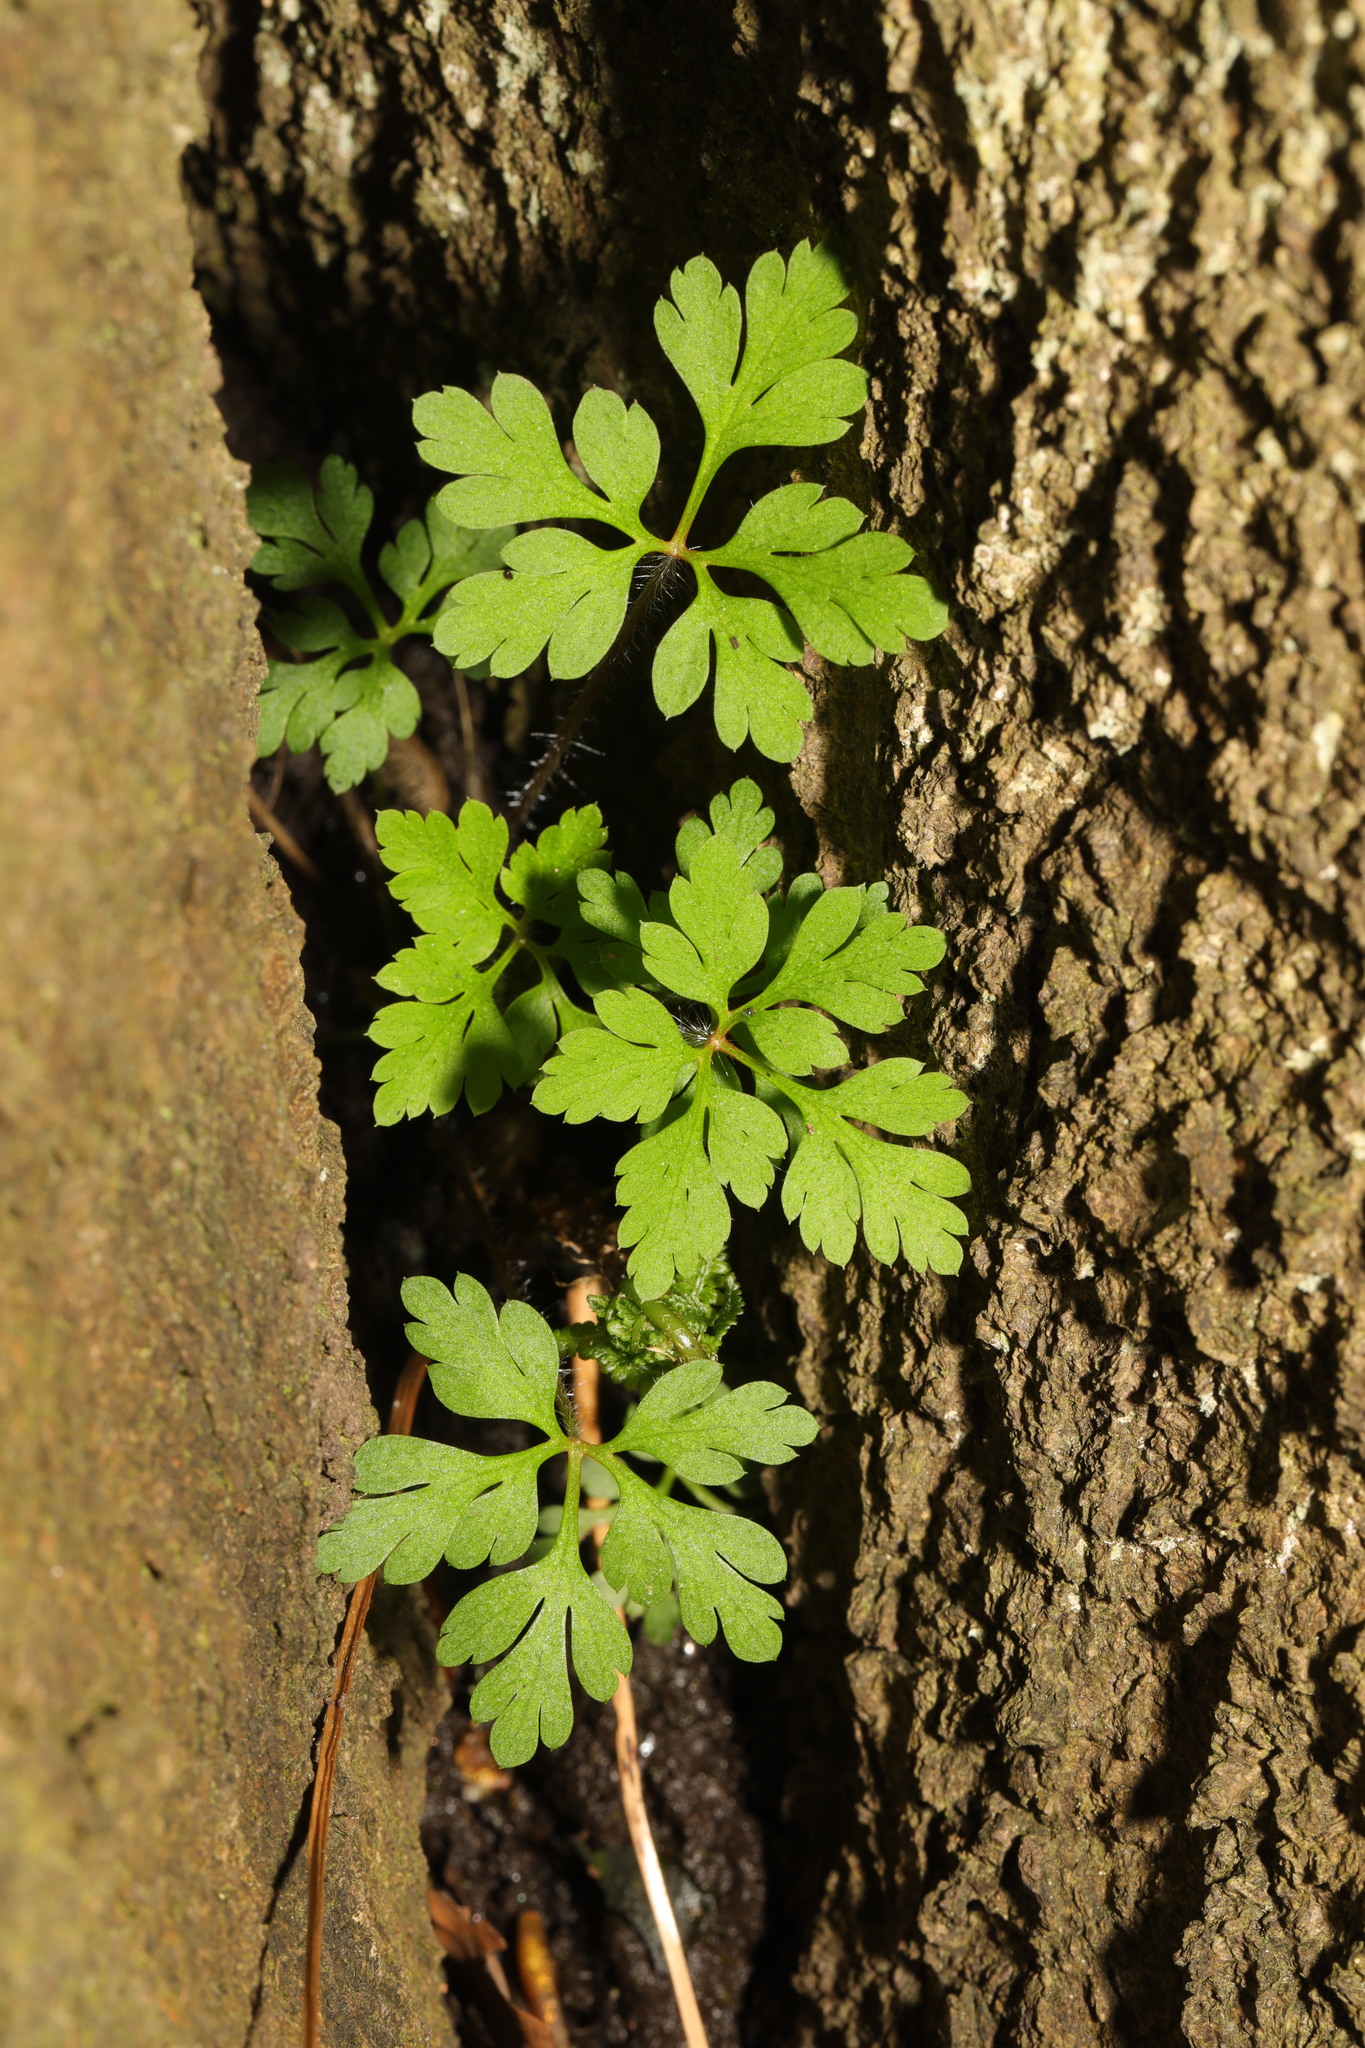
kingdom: Plantae
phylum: Tracheophyta
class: Magnoliopsida
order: Geraniales
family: Geraniaceae
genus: Geranium
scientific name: Geranium robertianum
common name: Herb-robert
